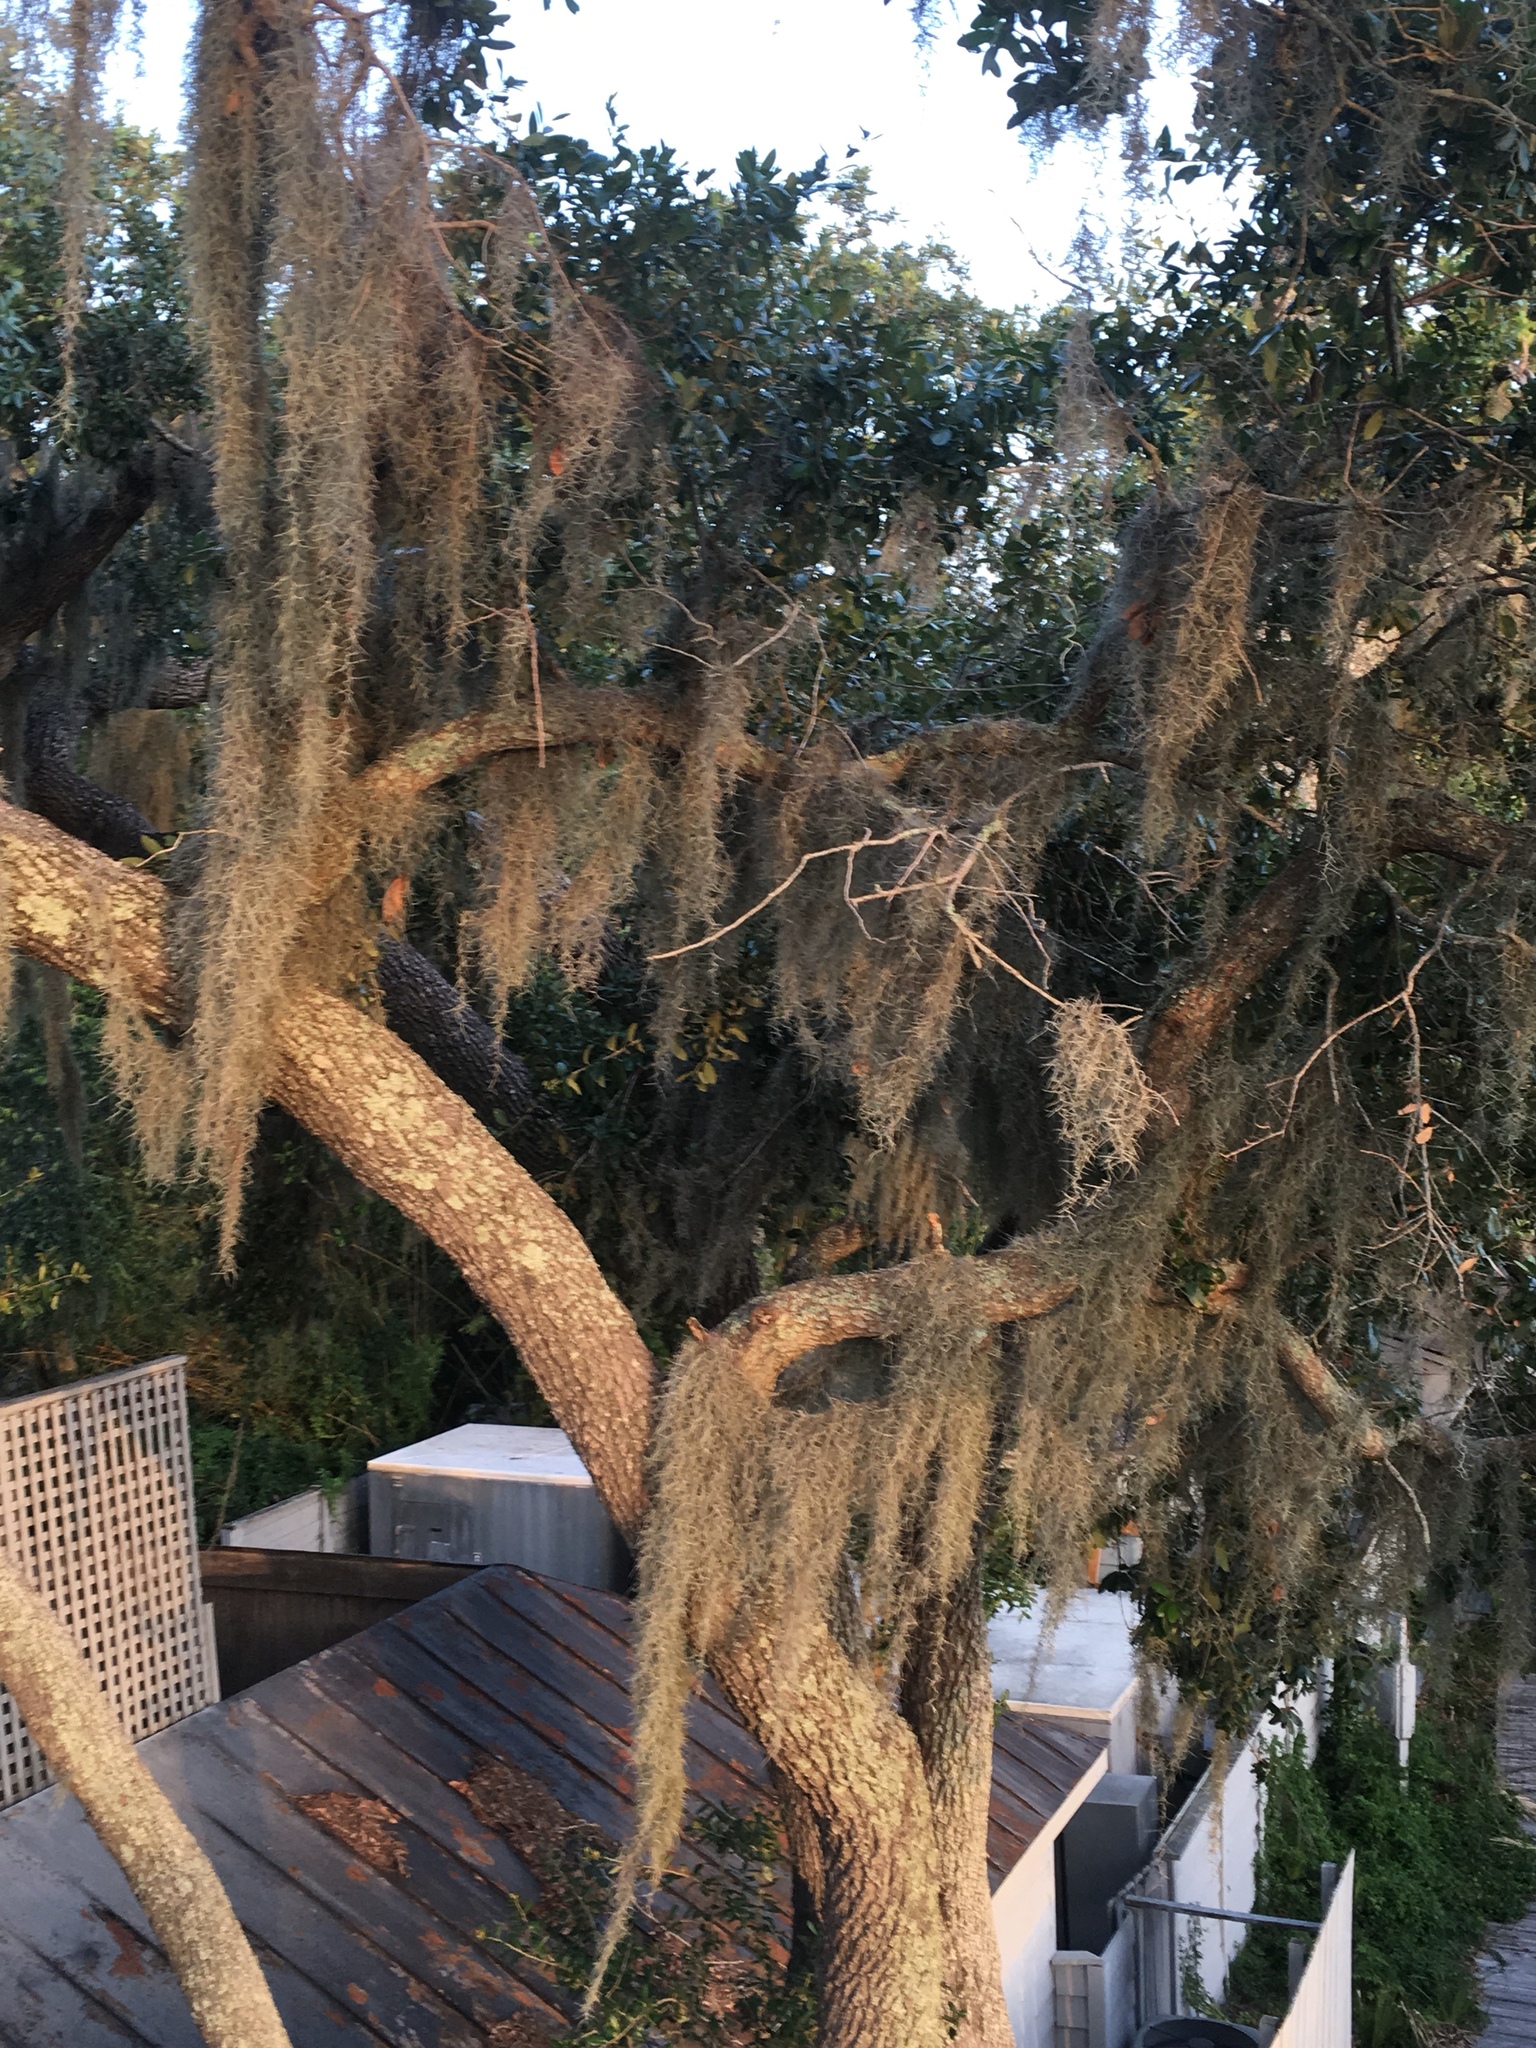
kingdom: Plantae
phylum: Tracheophyta
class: Liliopsida
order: Poales
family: Bromeliaceae
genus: Tillandsia
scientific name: Tillandsia usneoides
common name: Spanish moss
